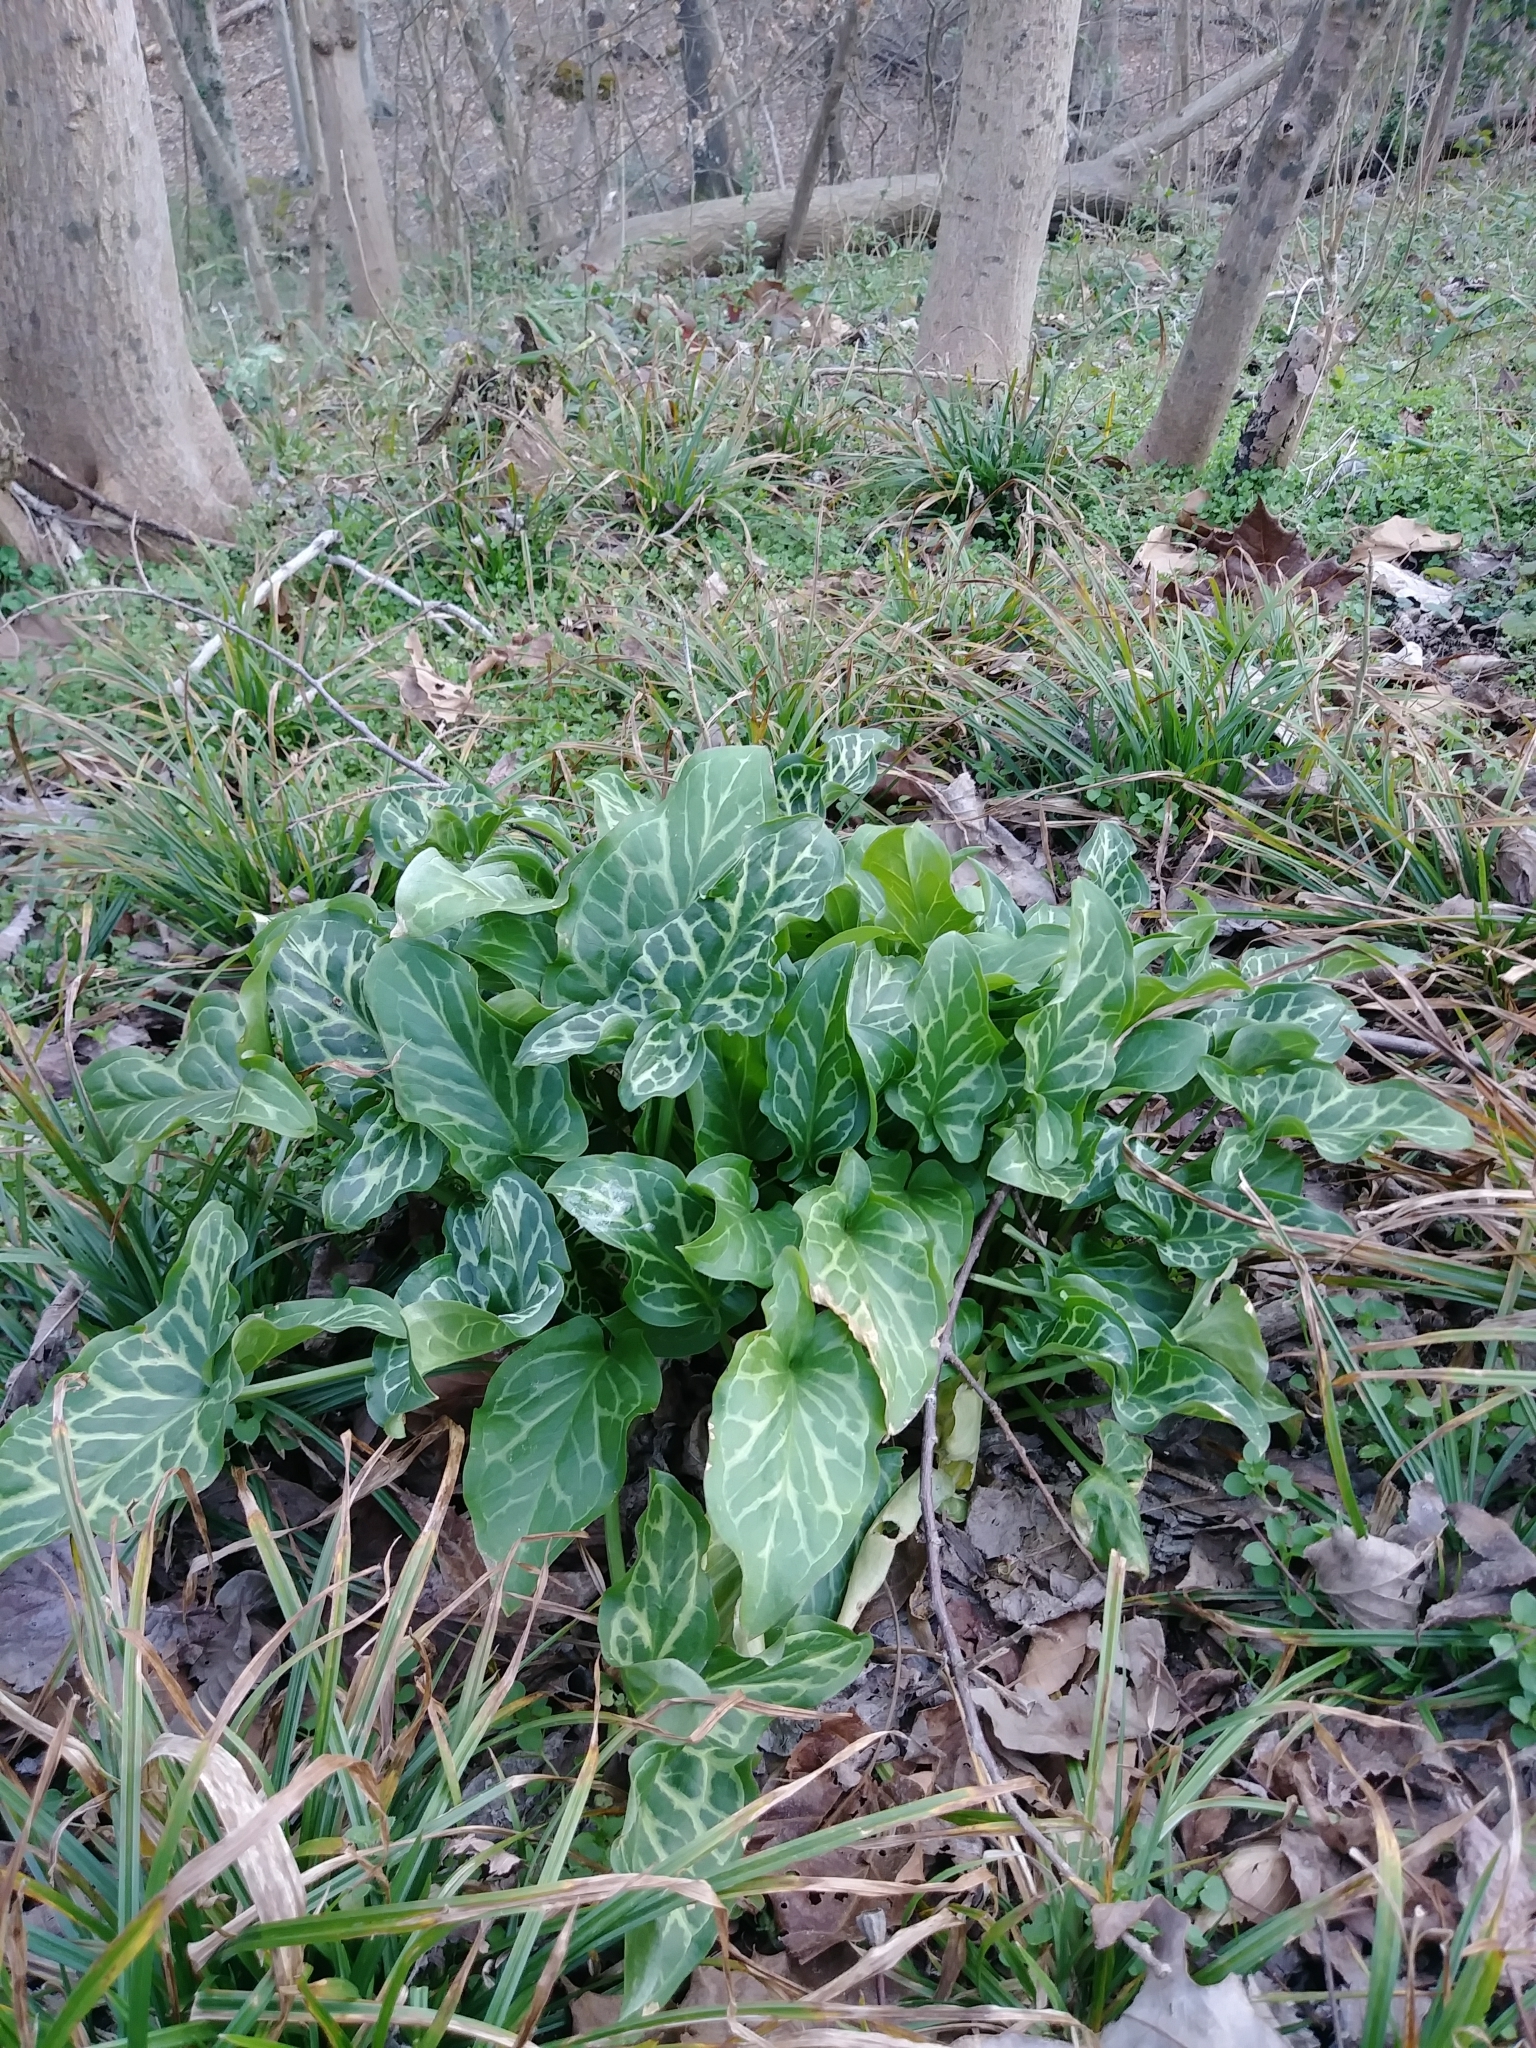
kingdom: Plantae
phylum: Tracheophyta
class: Liliopsida
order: Alismatales
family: Araceae
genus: Arum
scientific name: Arum italicum
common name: Italian lords-and-ladies
